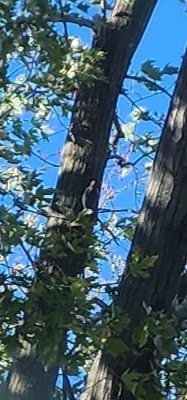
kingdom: Animalia
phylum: Chordata
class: Aves
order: Piciformes
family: Picidae
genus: Melanerpes
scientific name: Melanerpes carolinus
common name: Red-bellied woodpecker
